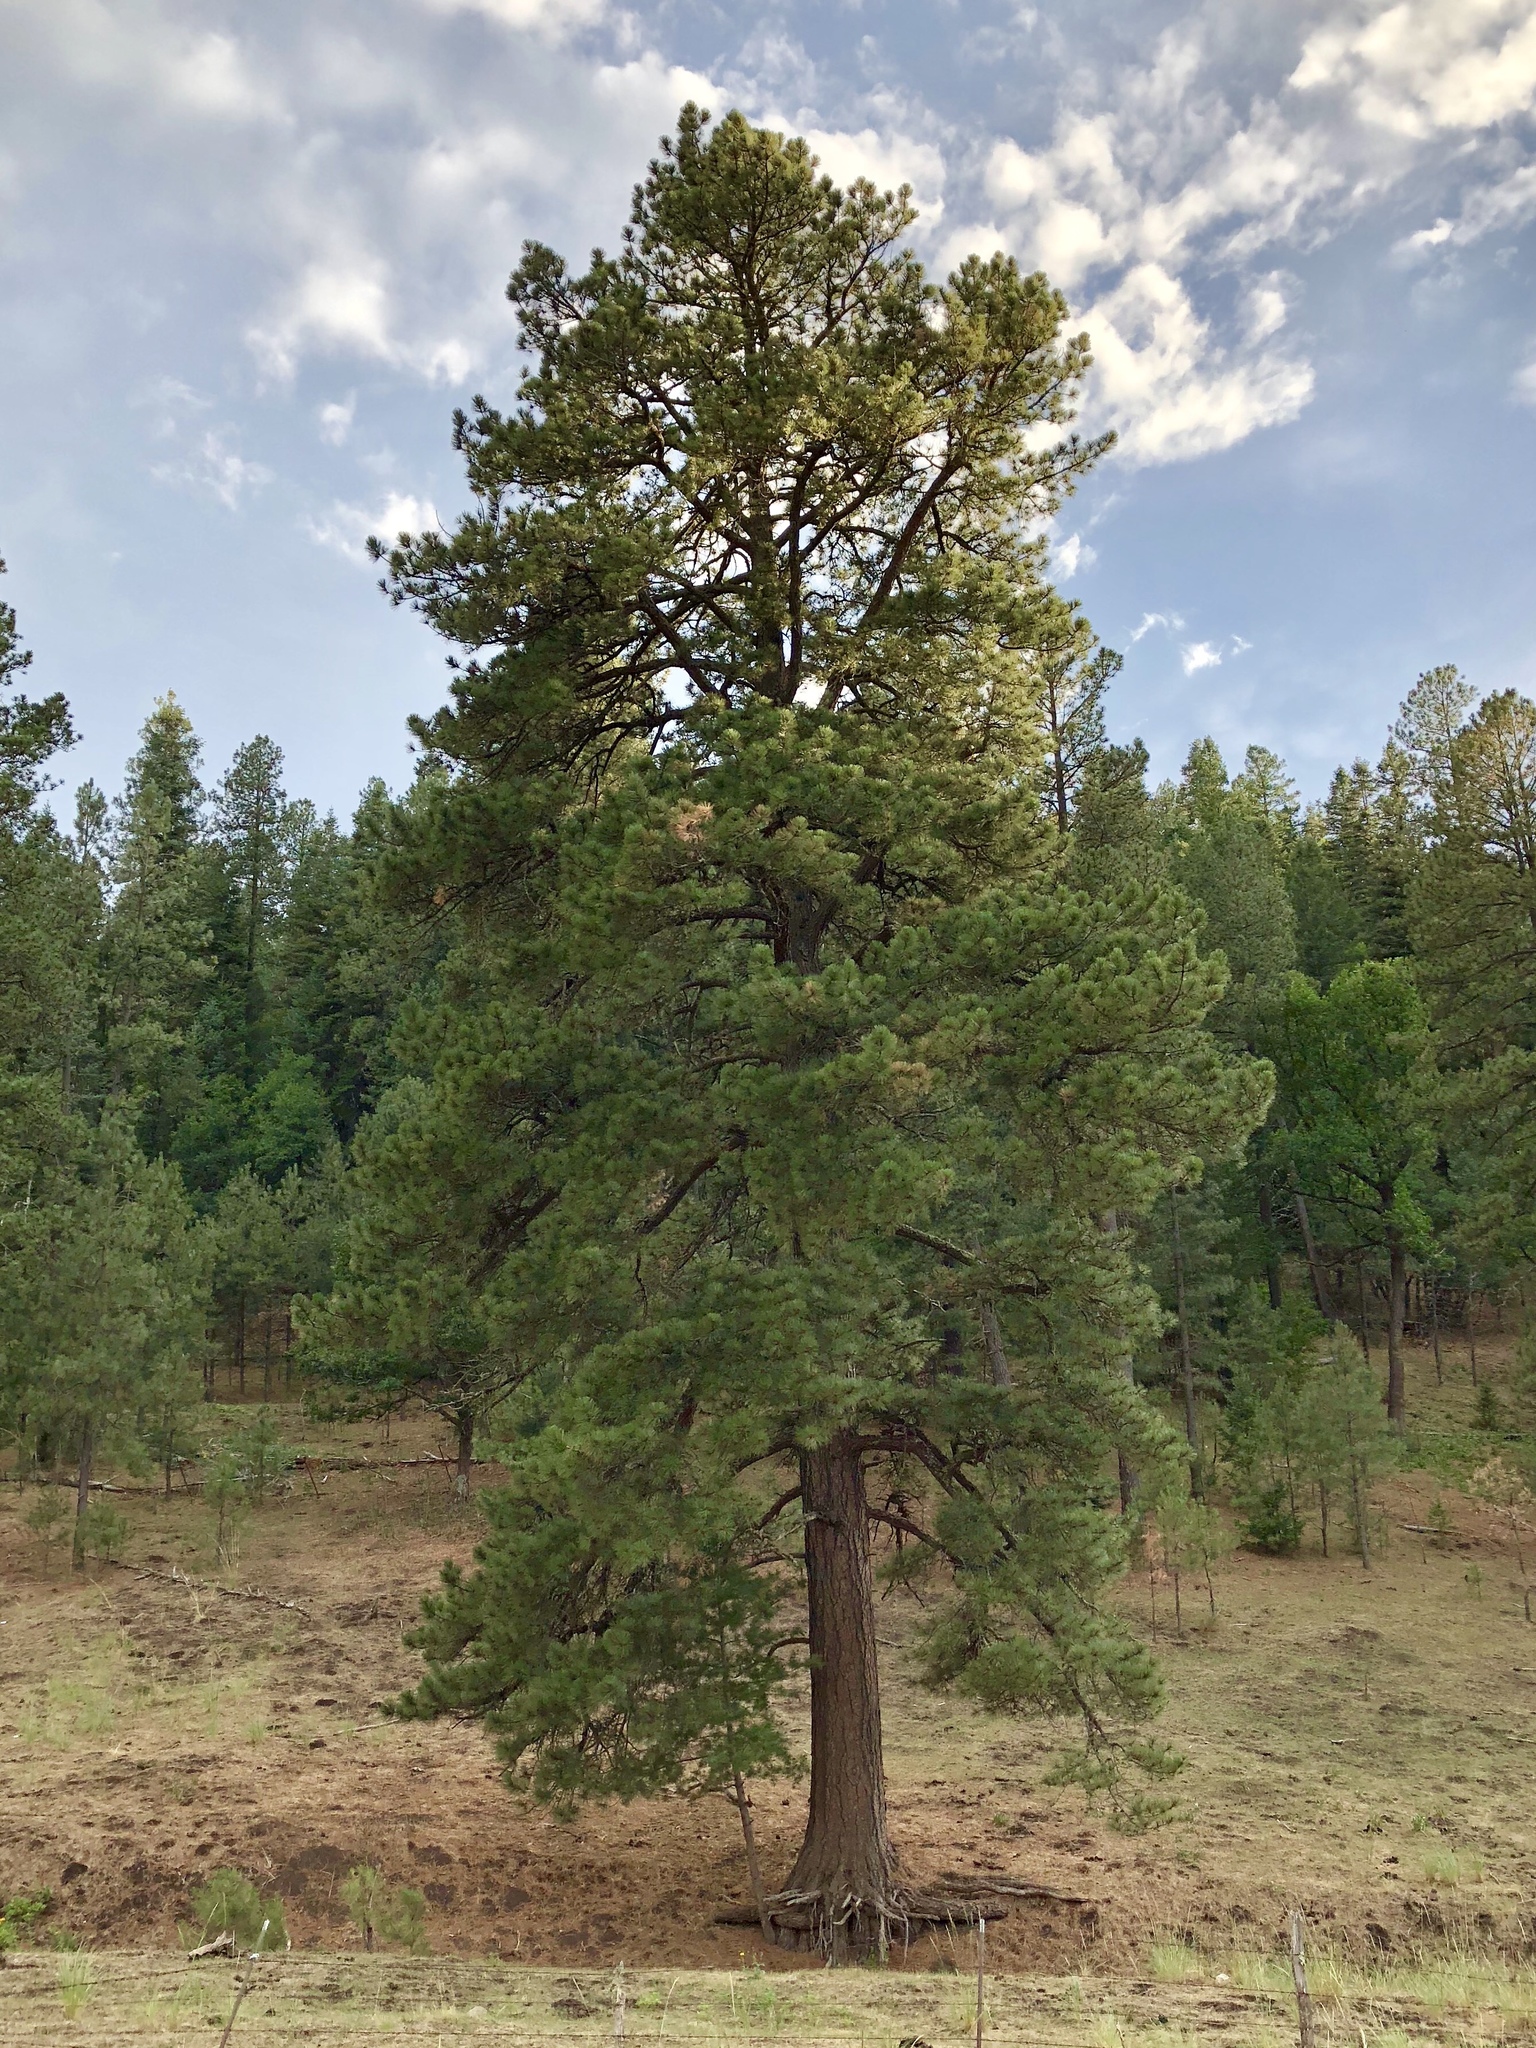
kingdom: Plantae
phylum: Tracheophyta
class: Pinopsida
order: Pinales
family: Pinaceae
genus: Pinus
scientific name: Pinus ponderosa
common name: Western yellow-pine
